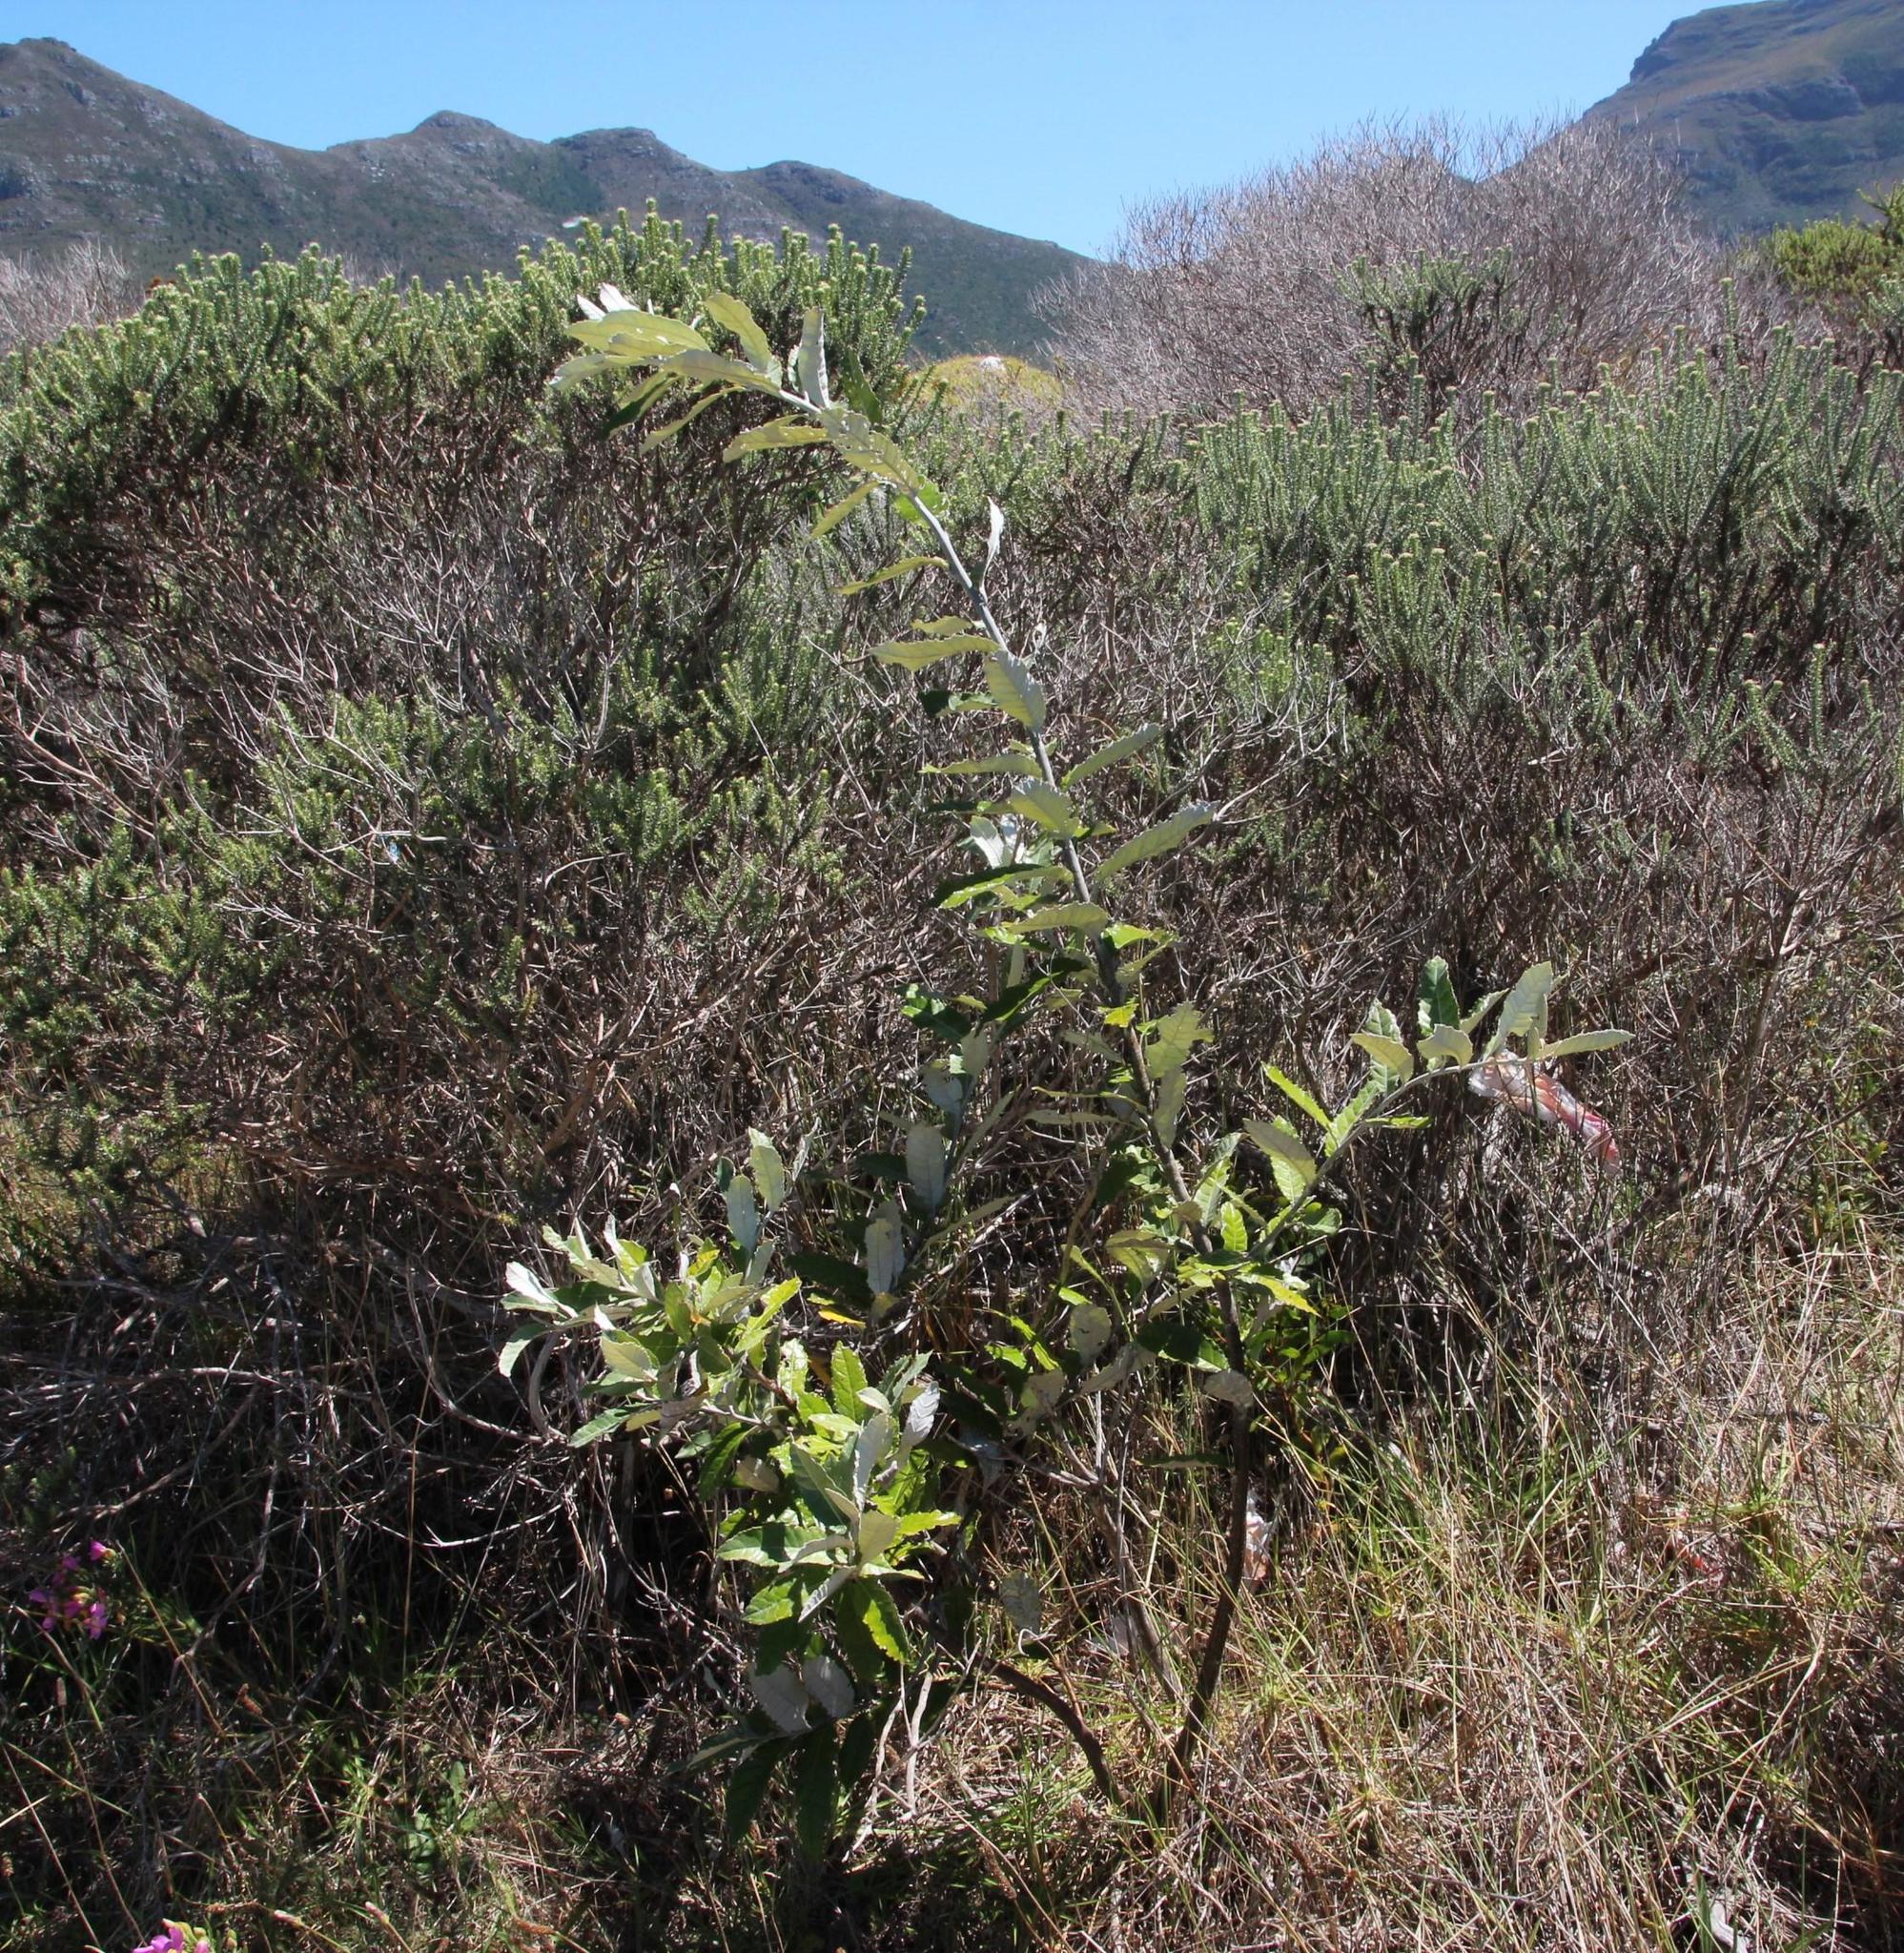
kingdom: Plantae
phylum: Tracheophyta
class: Magnoliopsida
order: Asterales
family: Asteraceae
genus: Brachylaena
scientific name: Brachylaena discolor
